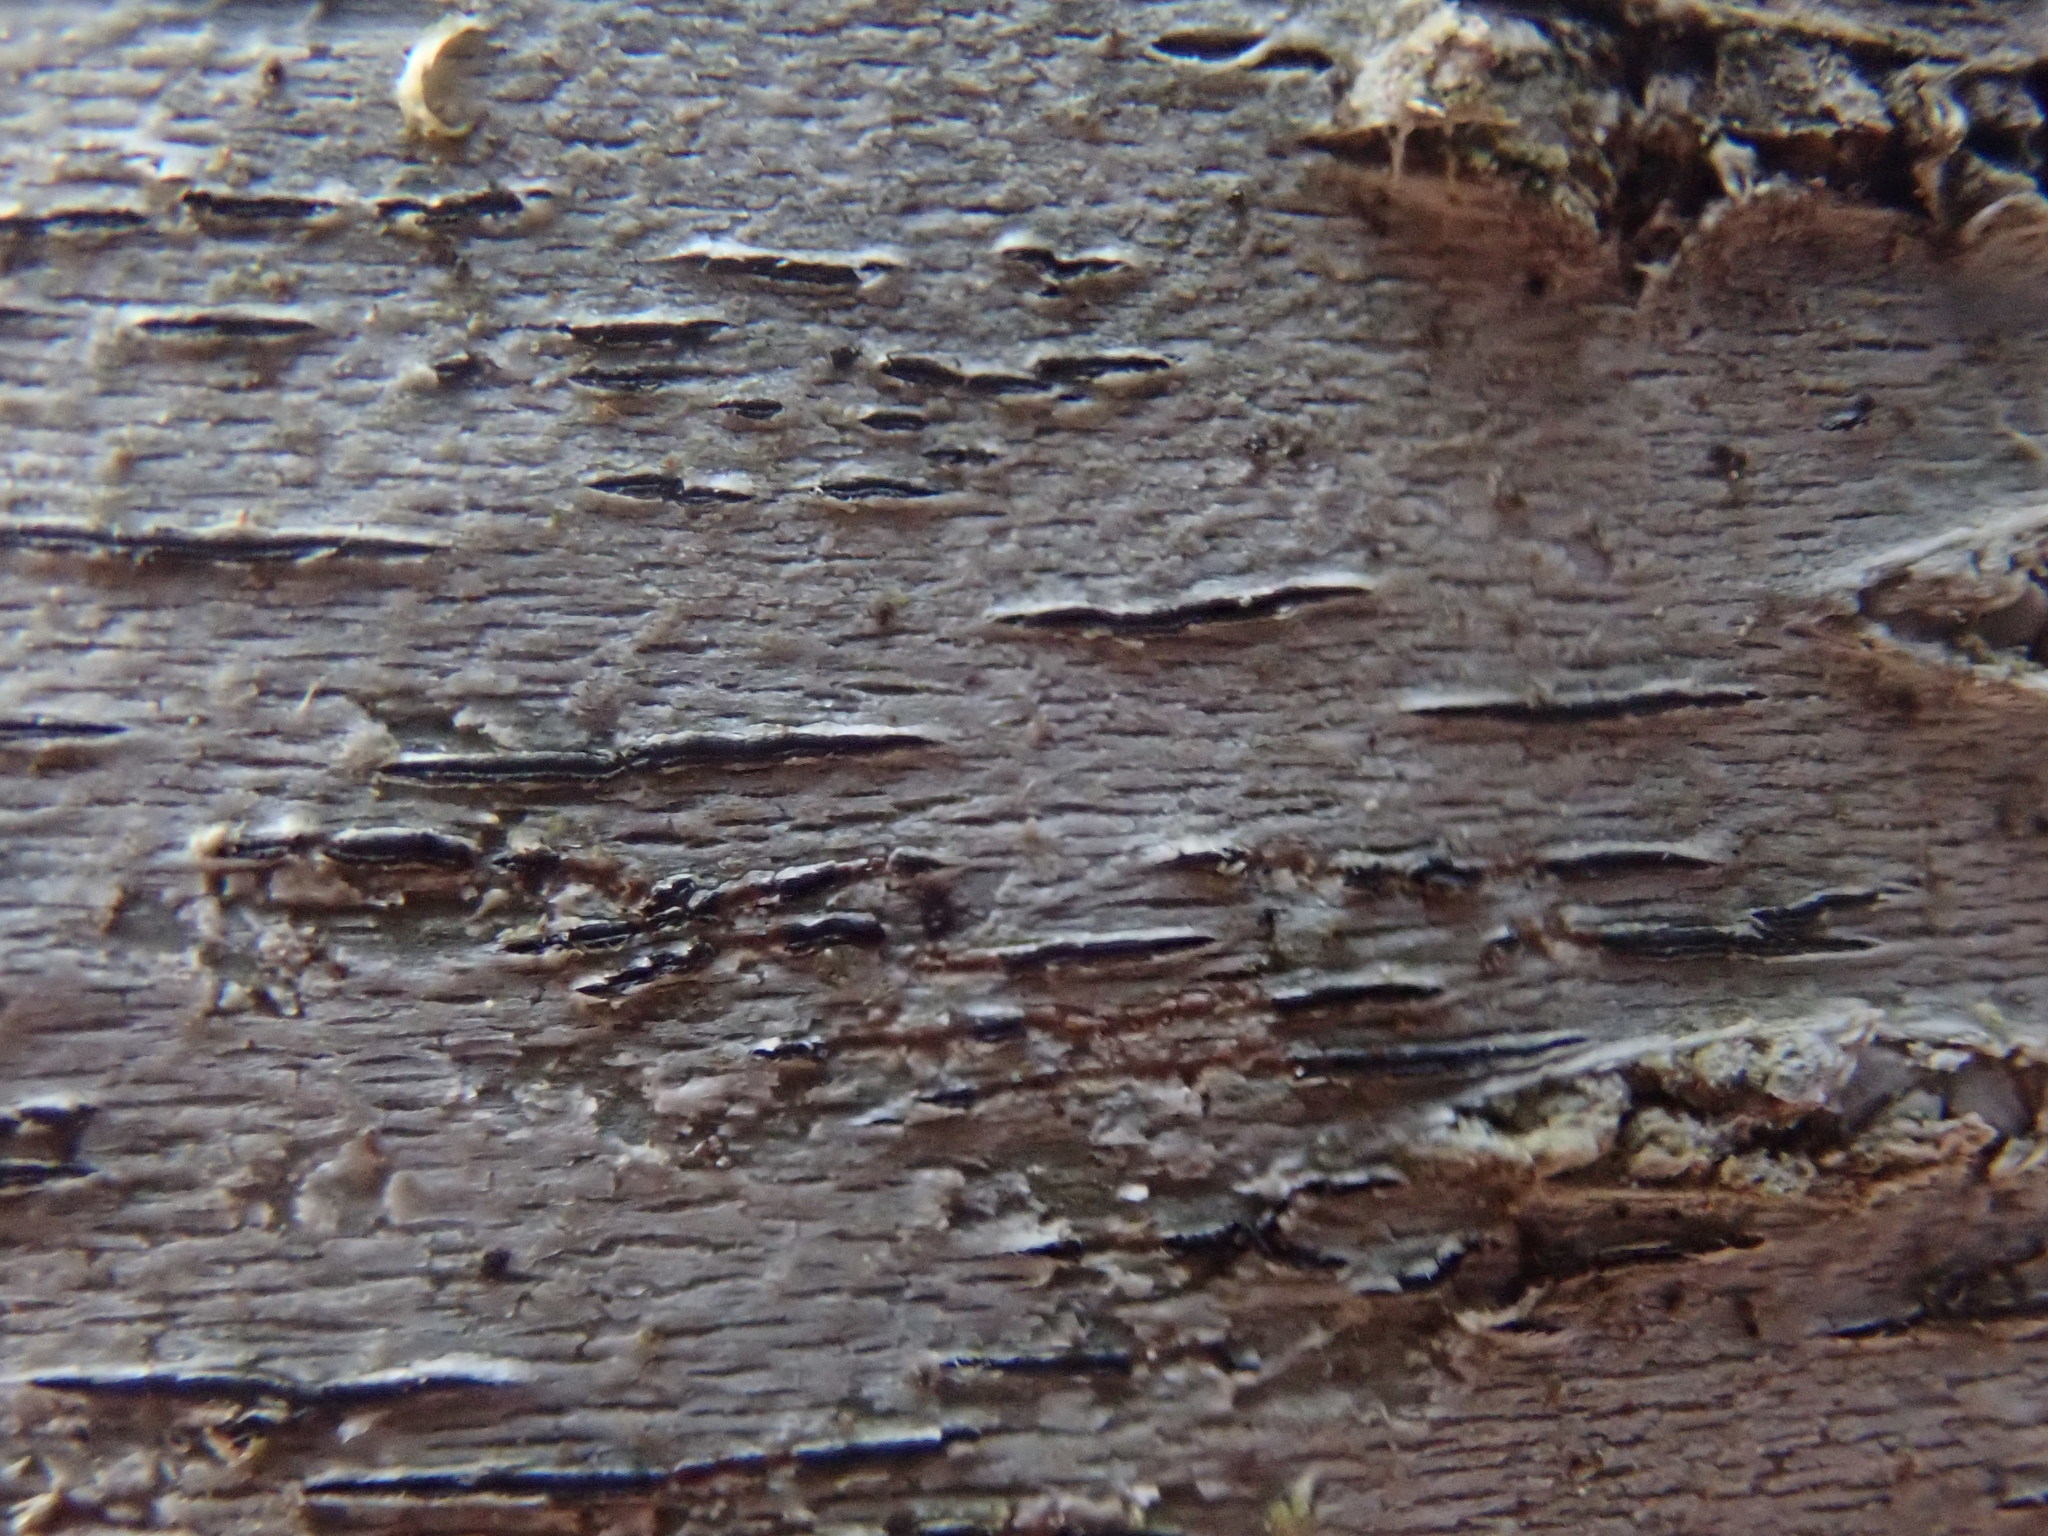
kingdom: Fungi
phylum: Ascomycota
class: Lecanoromycetes
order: Ostropales
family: Graphidaceae
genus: Graphis
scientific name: Graphis scripta
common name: Script lichen
